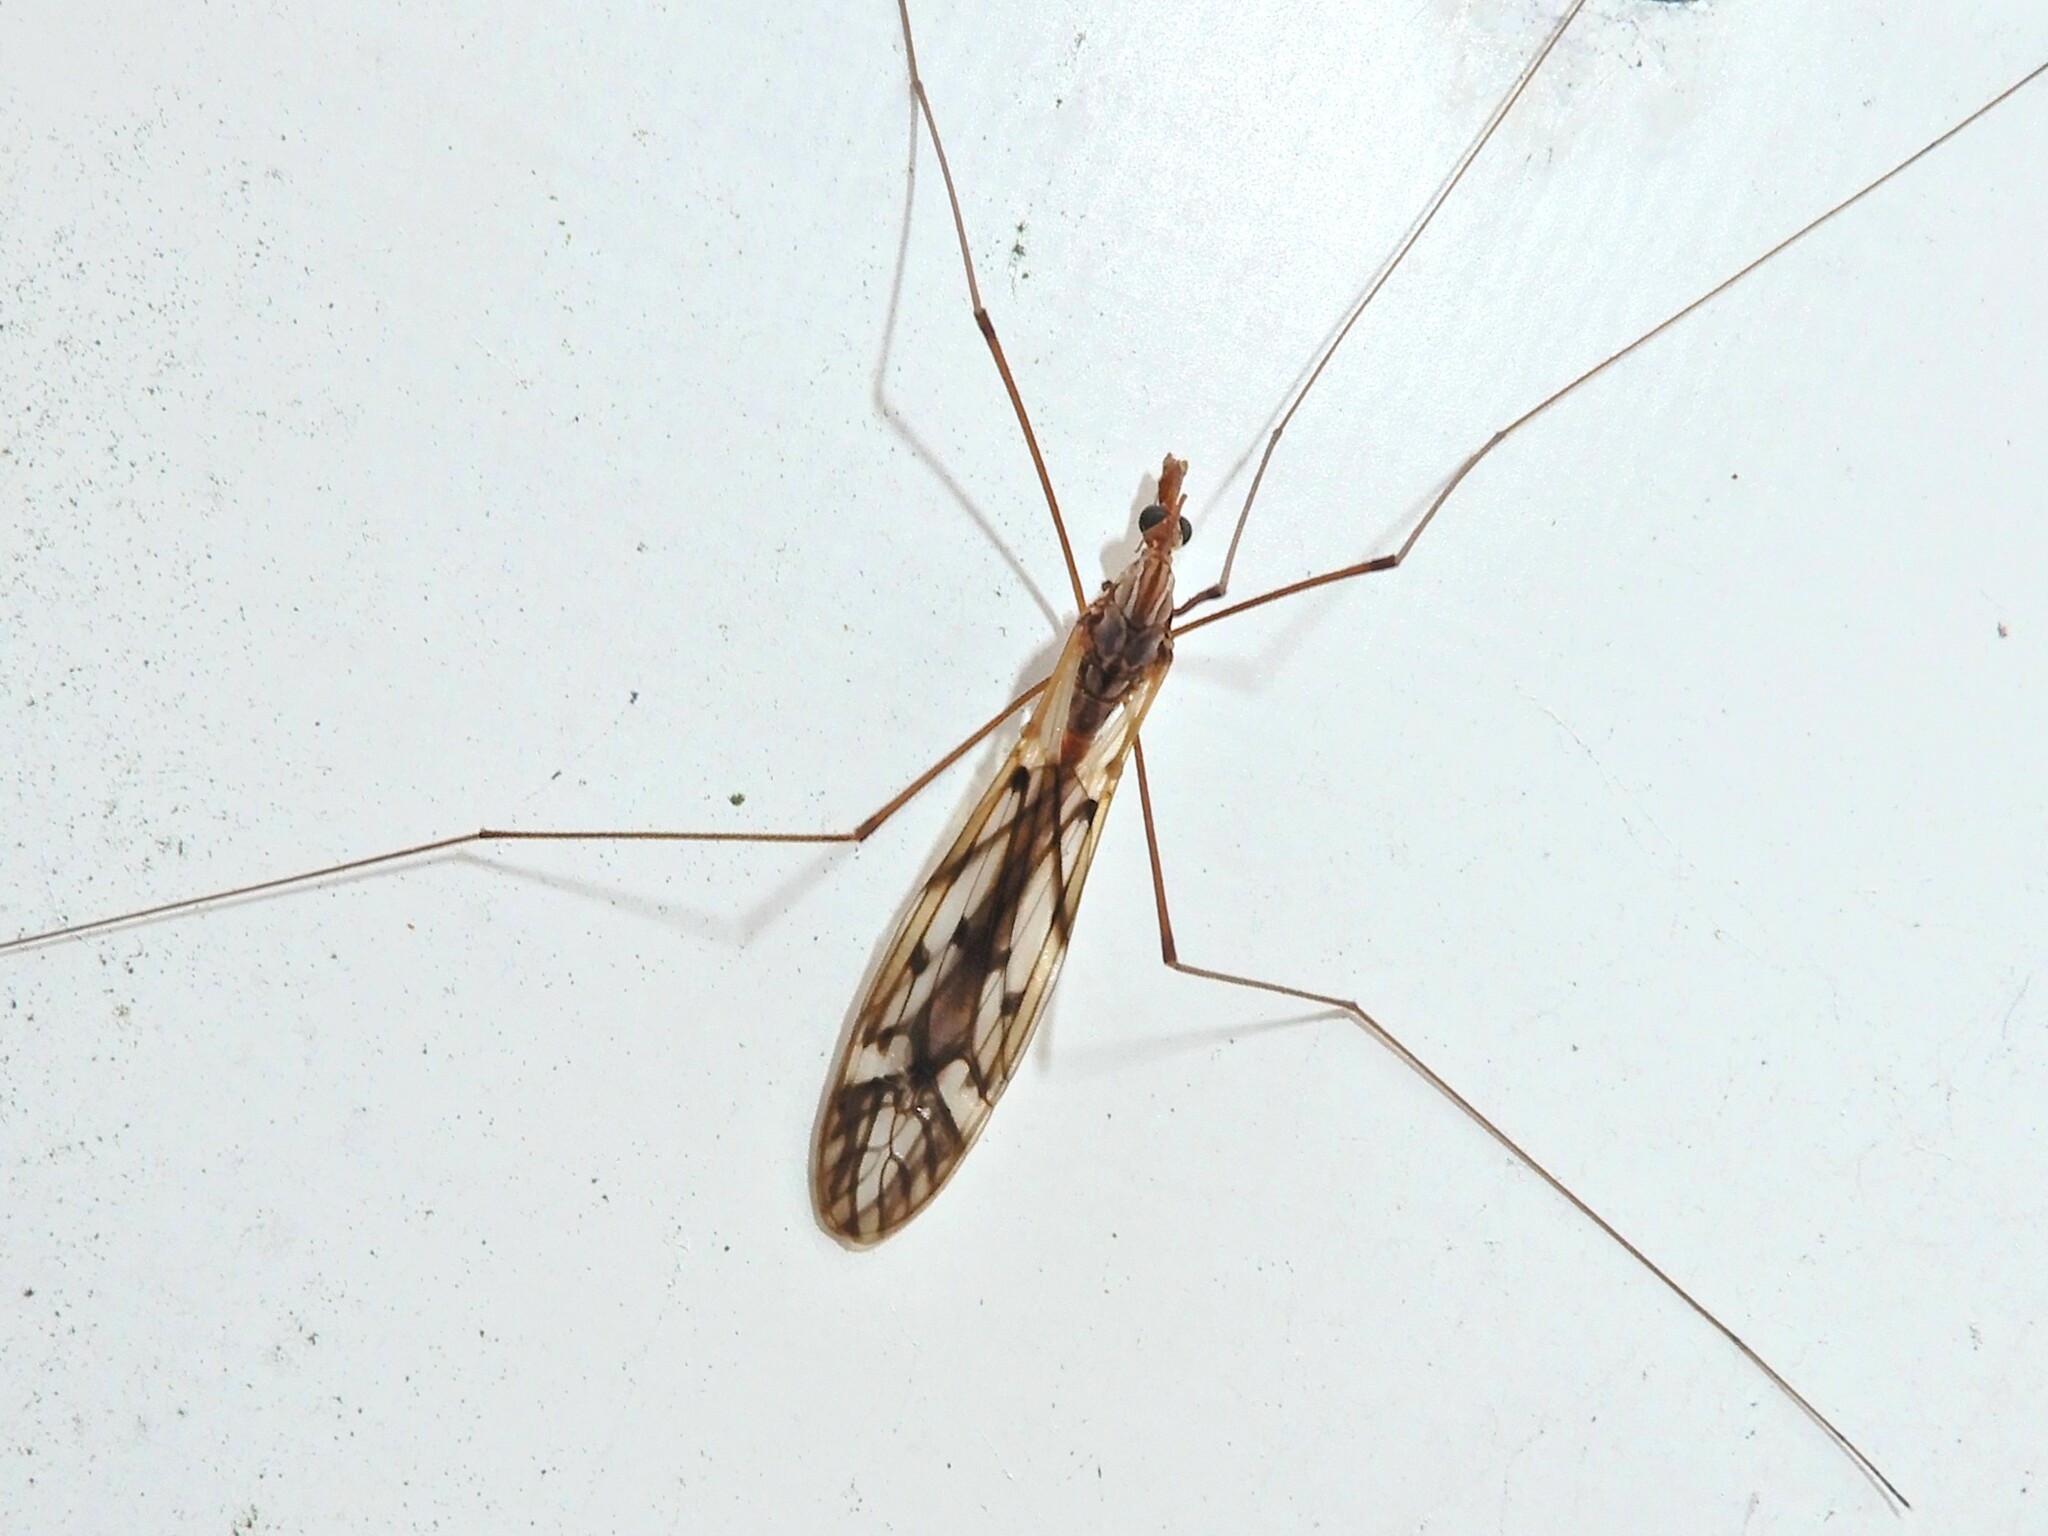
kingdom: Animalia
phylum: Arthropoda
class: Insecta
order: Diptera
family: Tipulidae
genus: Zelandotipula
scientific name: Zelandotipula novarae
